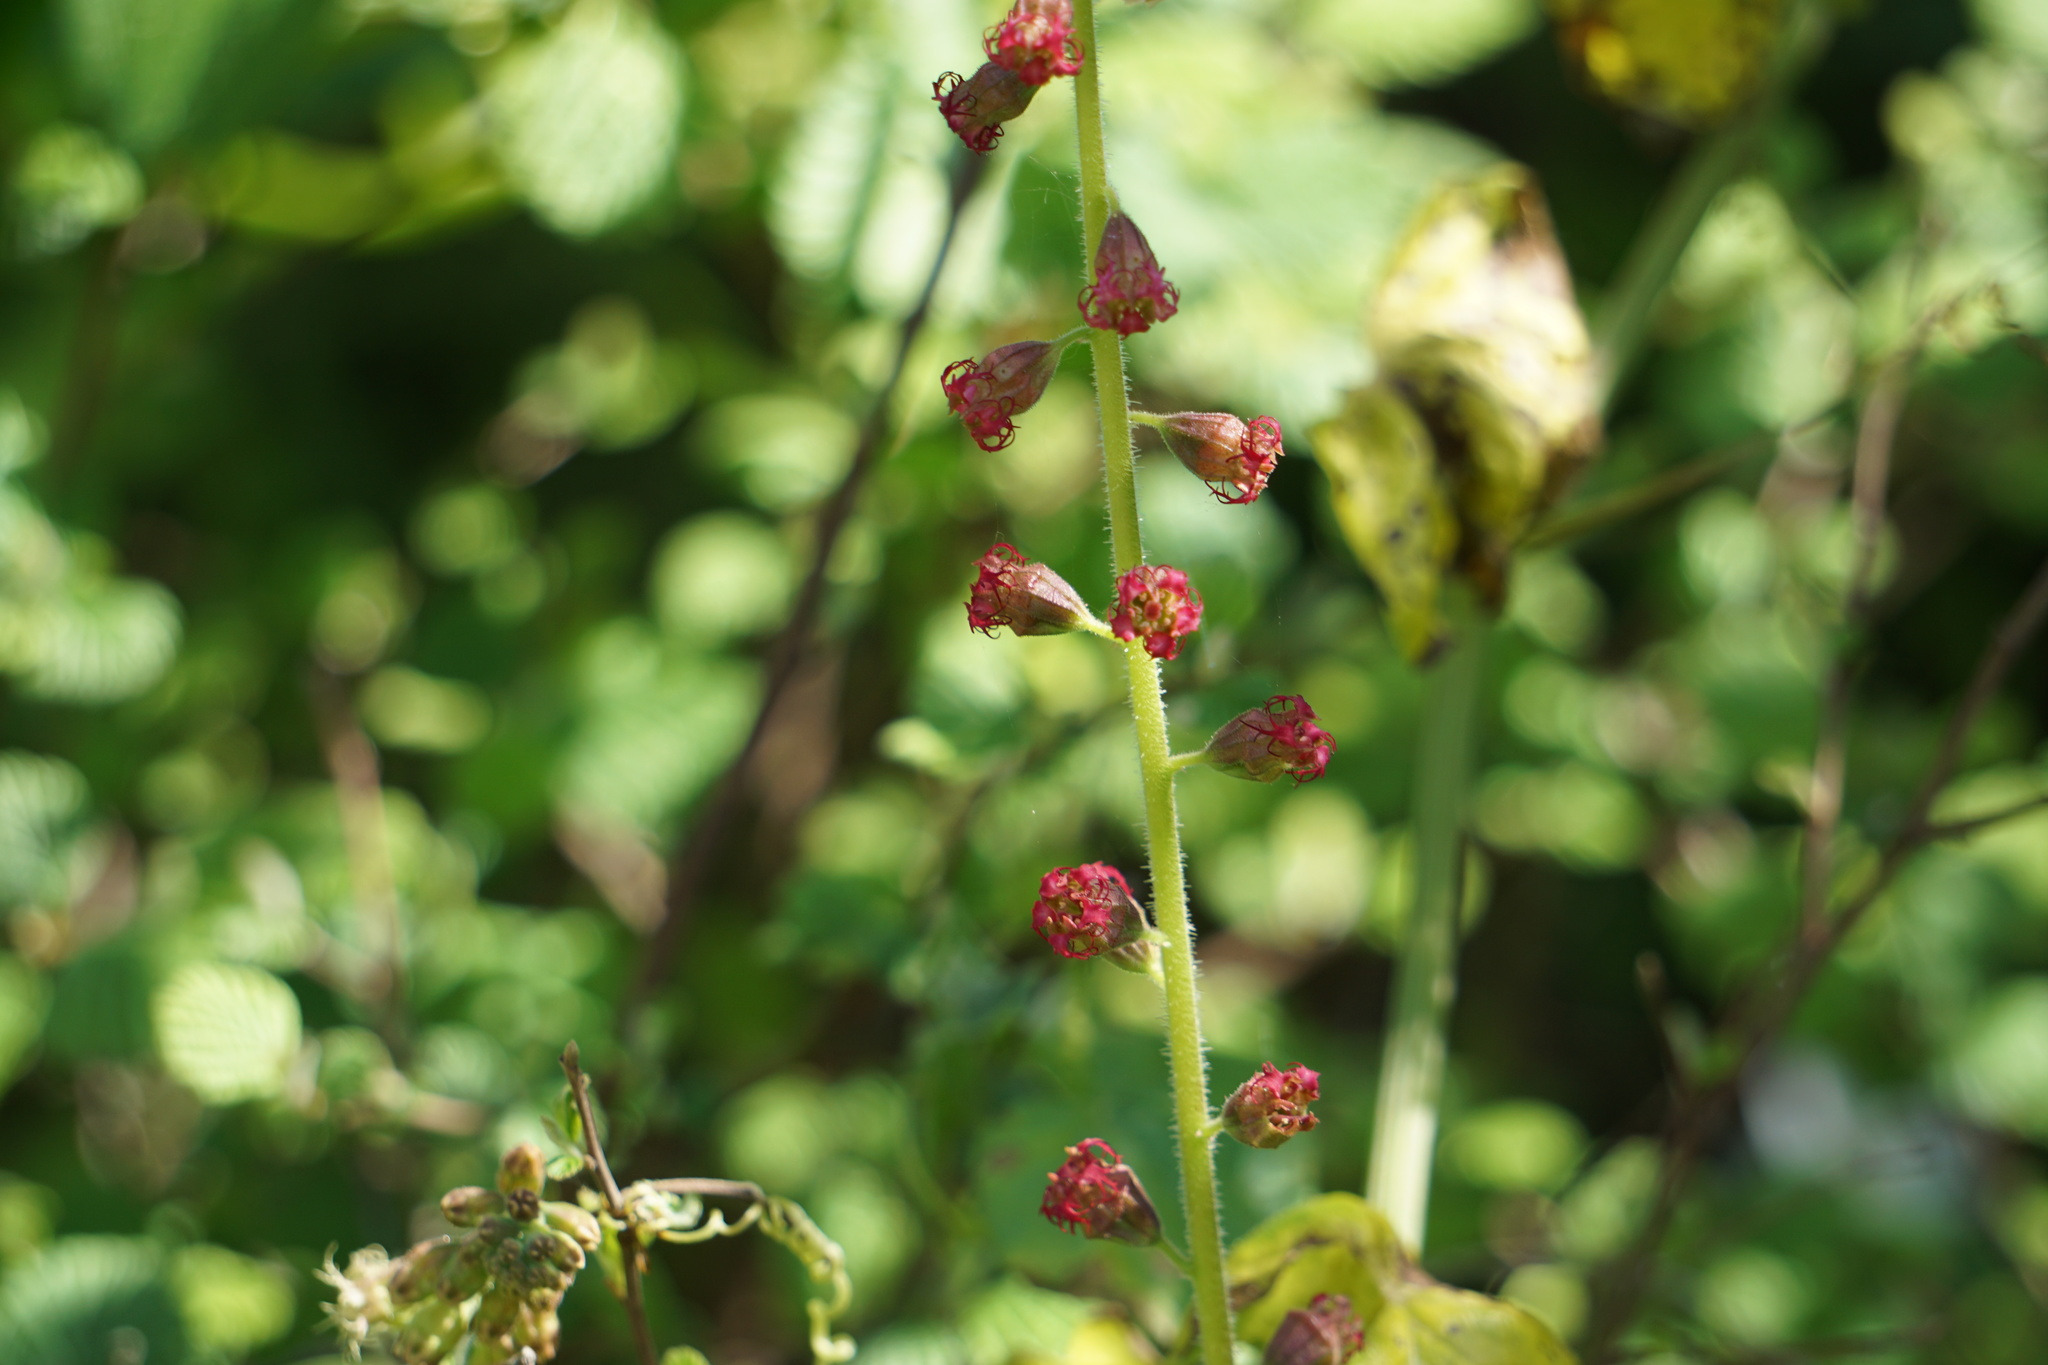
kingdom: Plantae
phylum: Tracheophyta
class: Magnoliopsida
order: Saxifragales
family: Saxifragaceae
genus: Tellima
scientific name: Tellima grandiflora
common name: Fringecups
